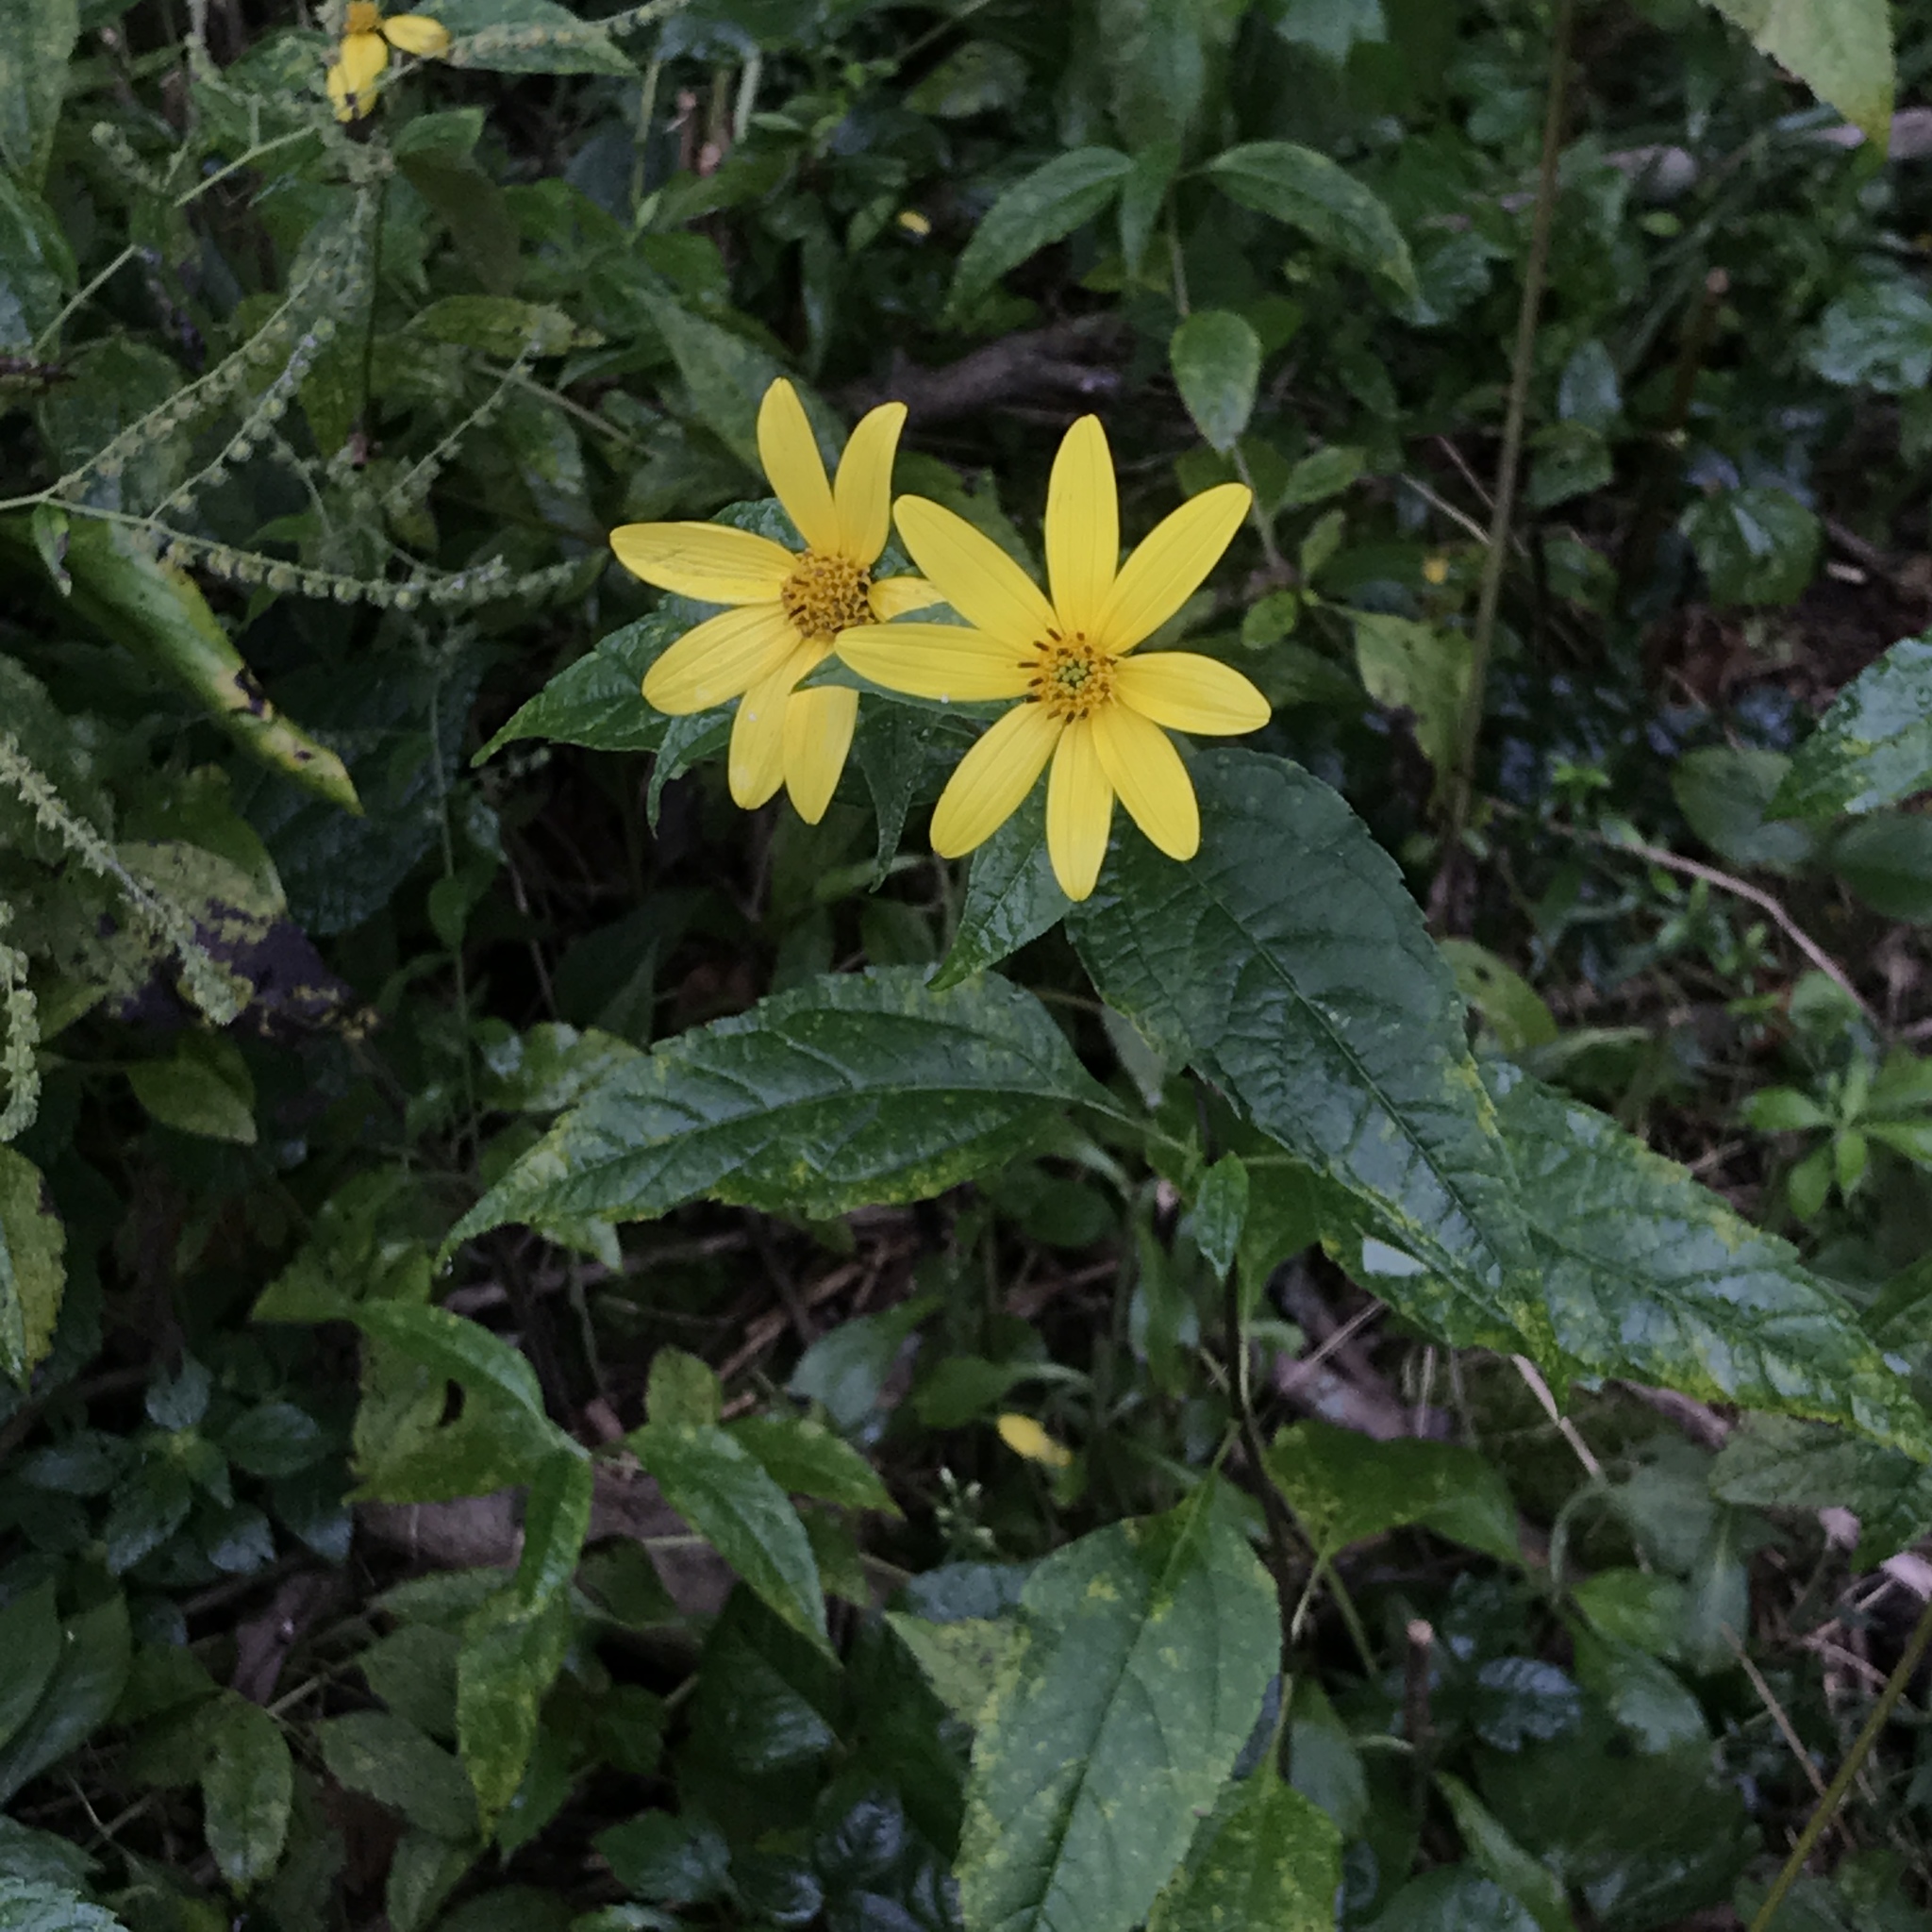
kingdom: Plantae
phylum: Tracheophyta
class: Magnoliopsida
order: Asterales
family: Asteraceae
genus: Helianthus
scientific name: Helianthus decapetalus
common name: Thin-leaved sunflower
